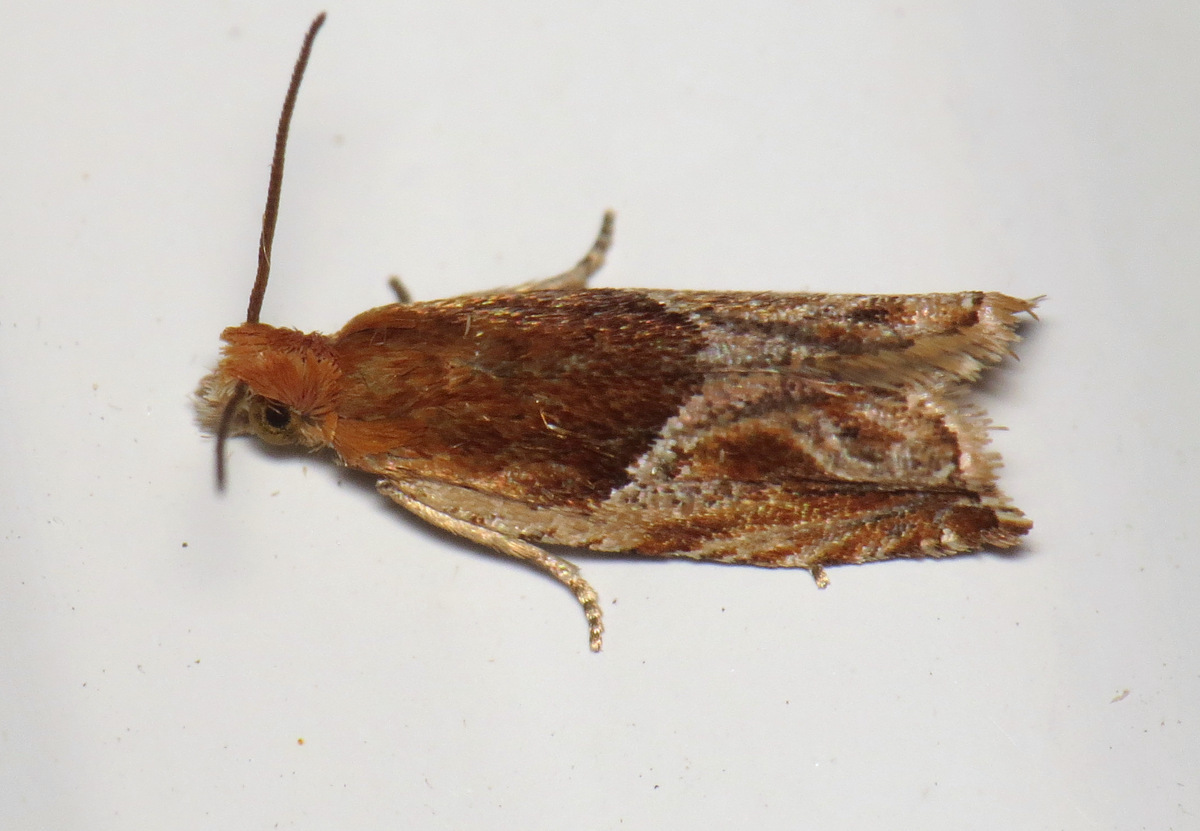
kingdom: Animalia
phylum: Arthropoda
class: Insecta
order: Lepidoptera
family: Tortricidae
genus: Ancylis
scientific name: Ancylis comptana
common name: Little roller
